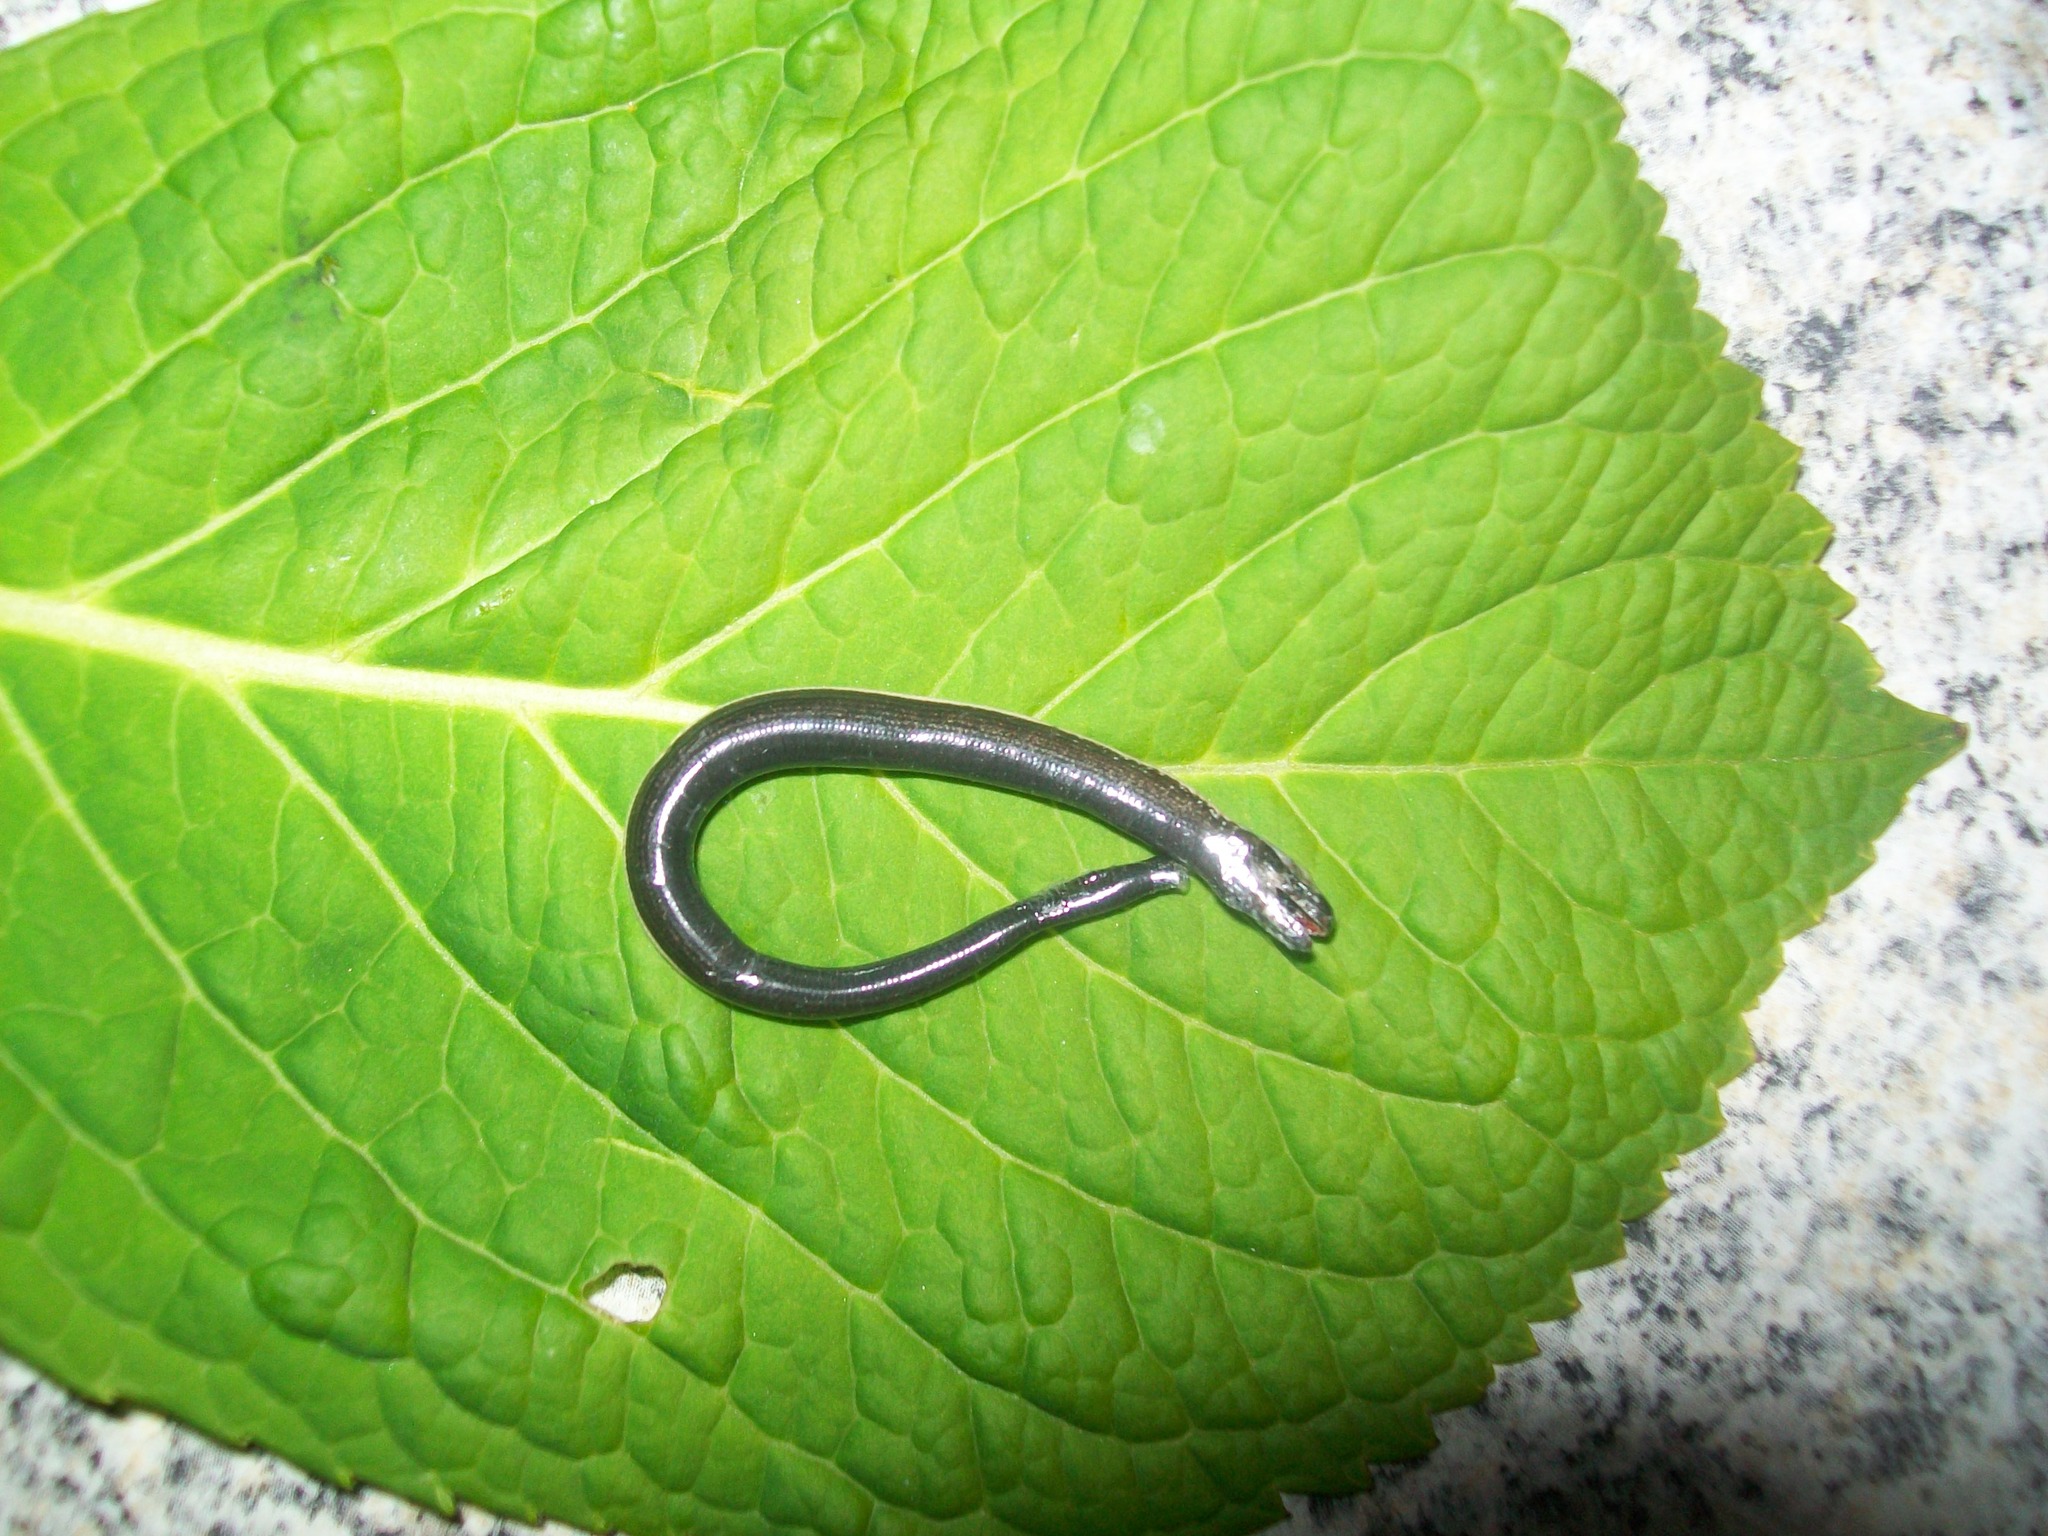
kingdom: Animalia
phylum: Chordata
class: Squamata
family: Anguidae
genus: Anguis
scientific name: Anguis veronensis
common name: Italian slow worm
